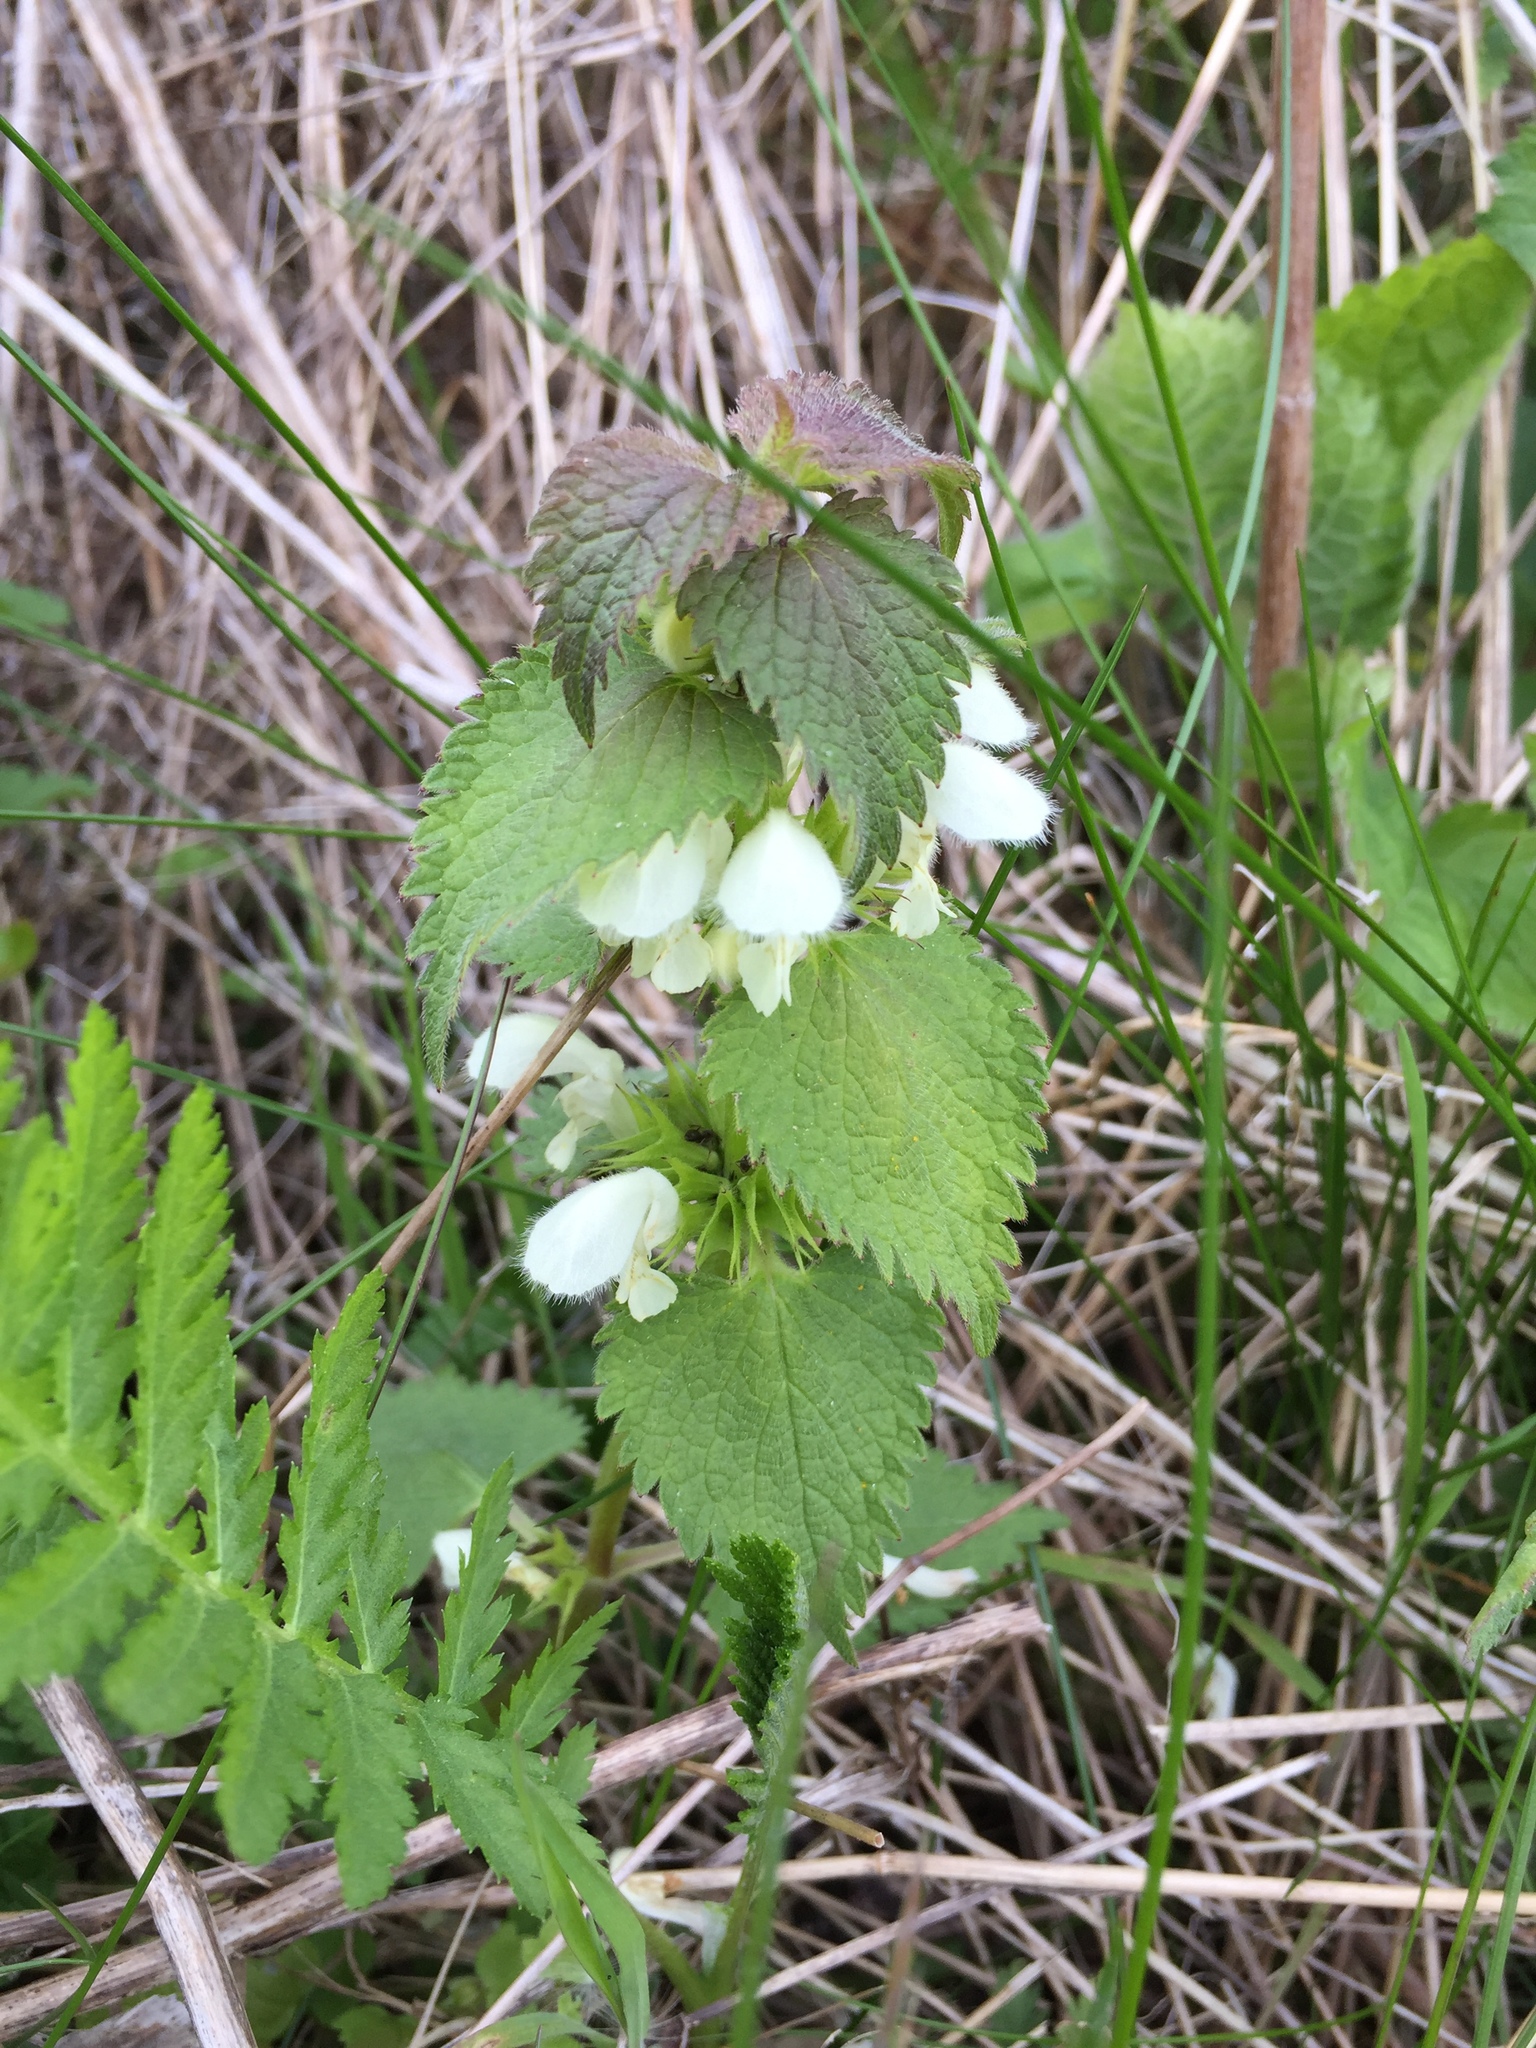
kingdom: Plantae
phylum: Tracheophyta
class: Magnoliopsida
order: Lamiales
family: Lamiaceae
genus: Lamium
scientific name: Lamium album
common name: White dead-nettle
